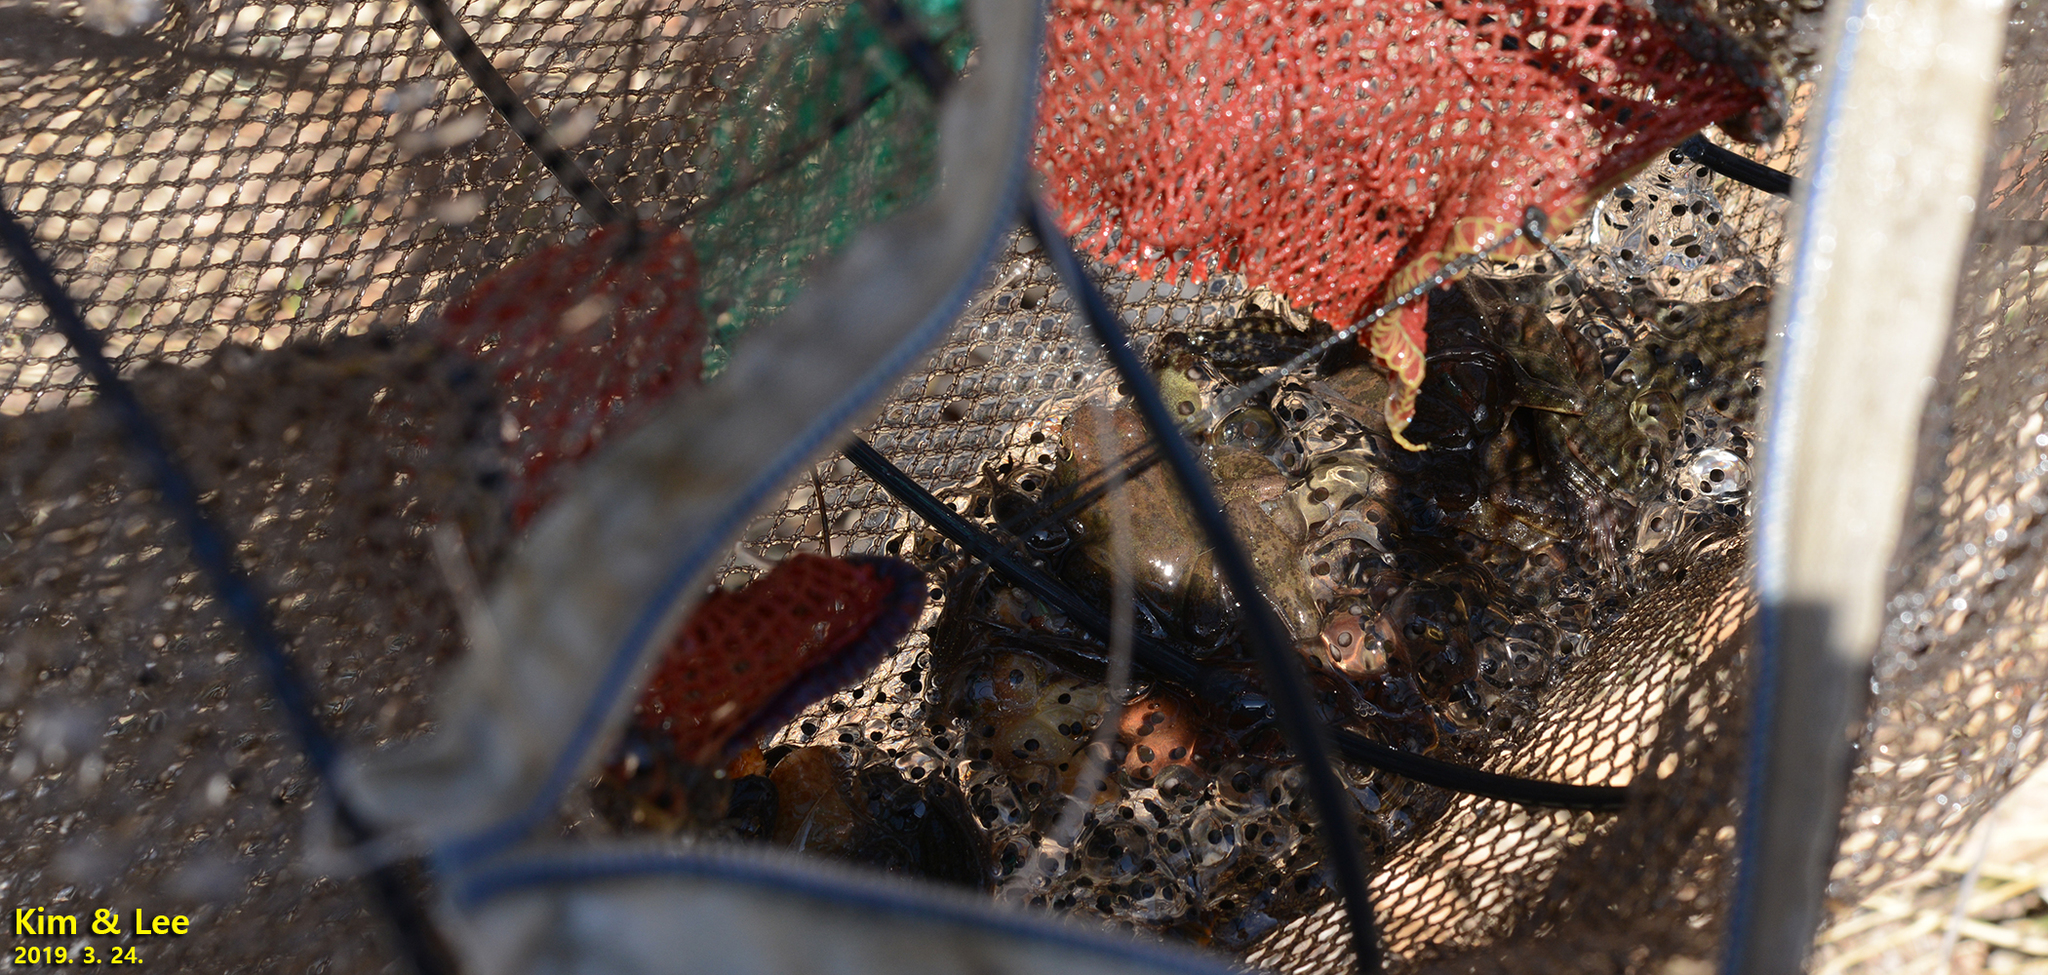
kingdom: Animalia
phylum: Chordata
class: Amphibia
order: Anura
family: Ranidae
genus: Rana
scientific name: Rana huanrenensis
